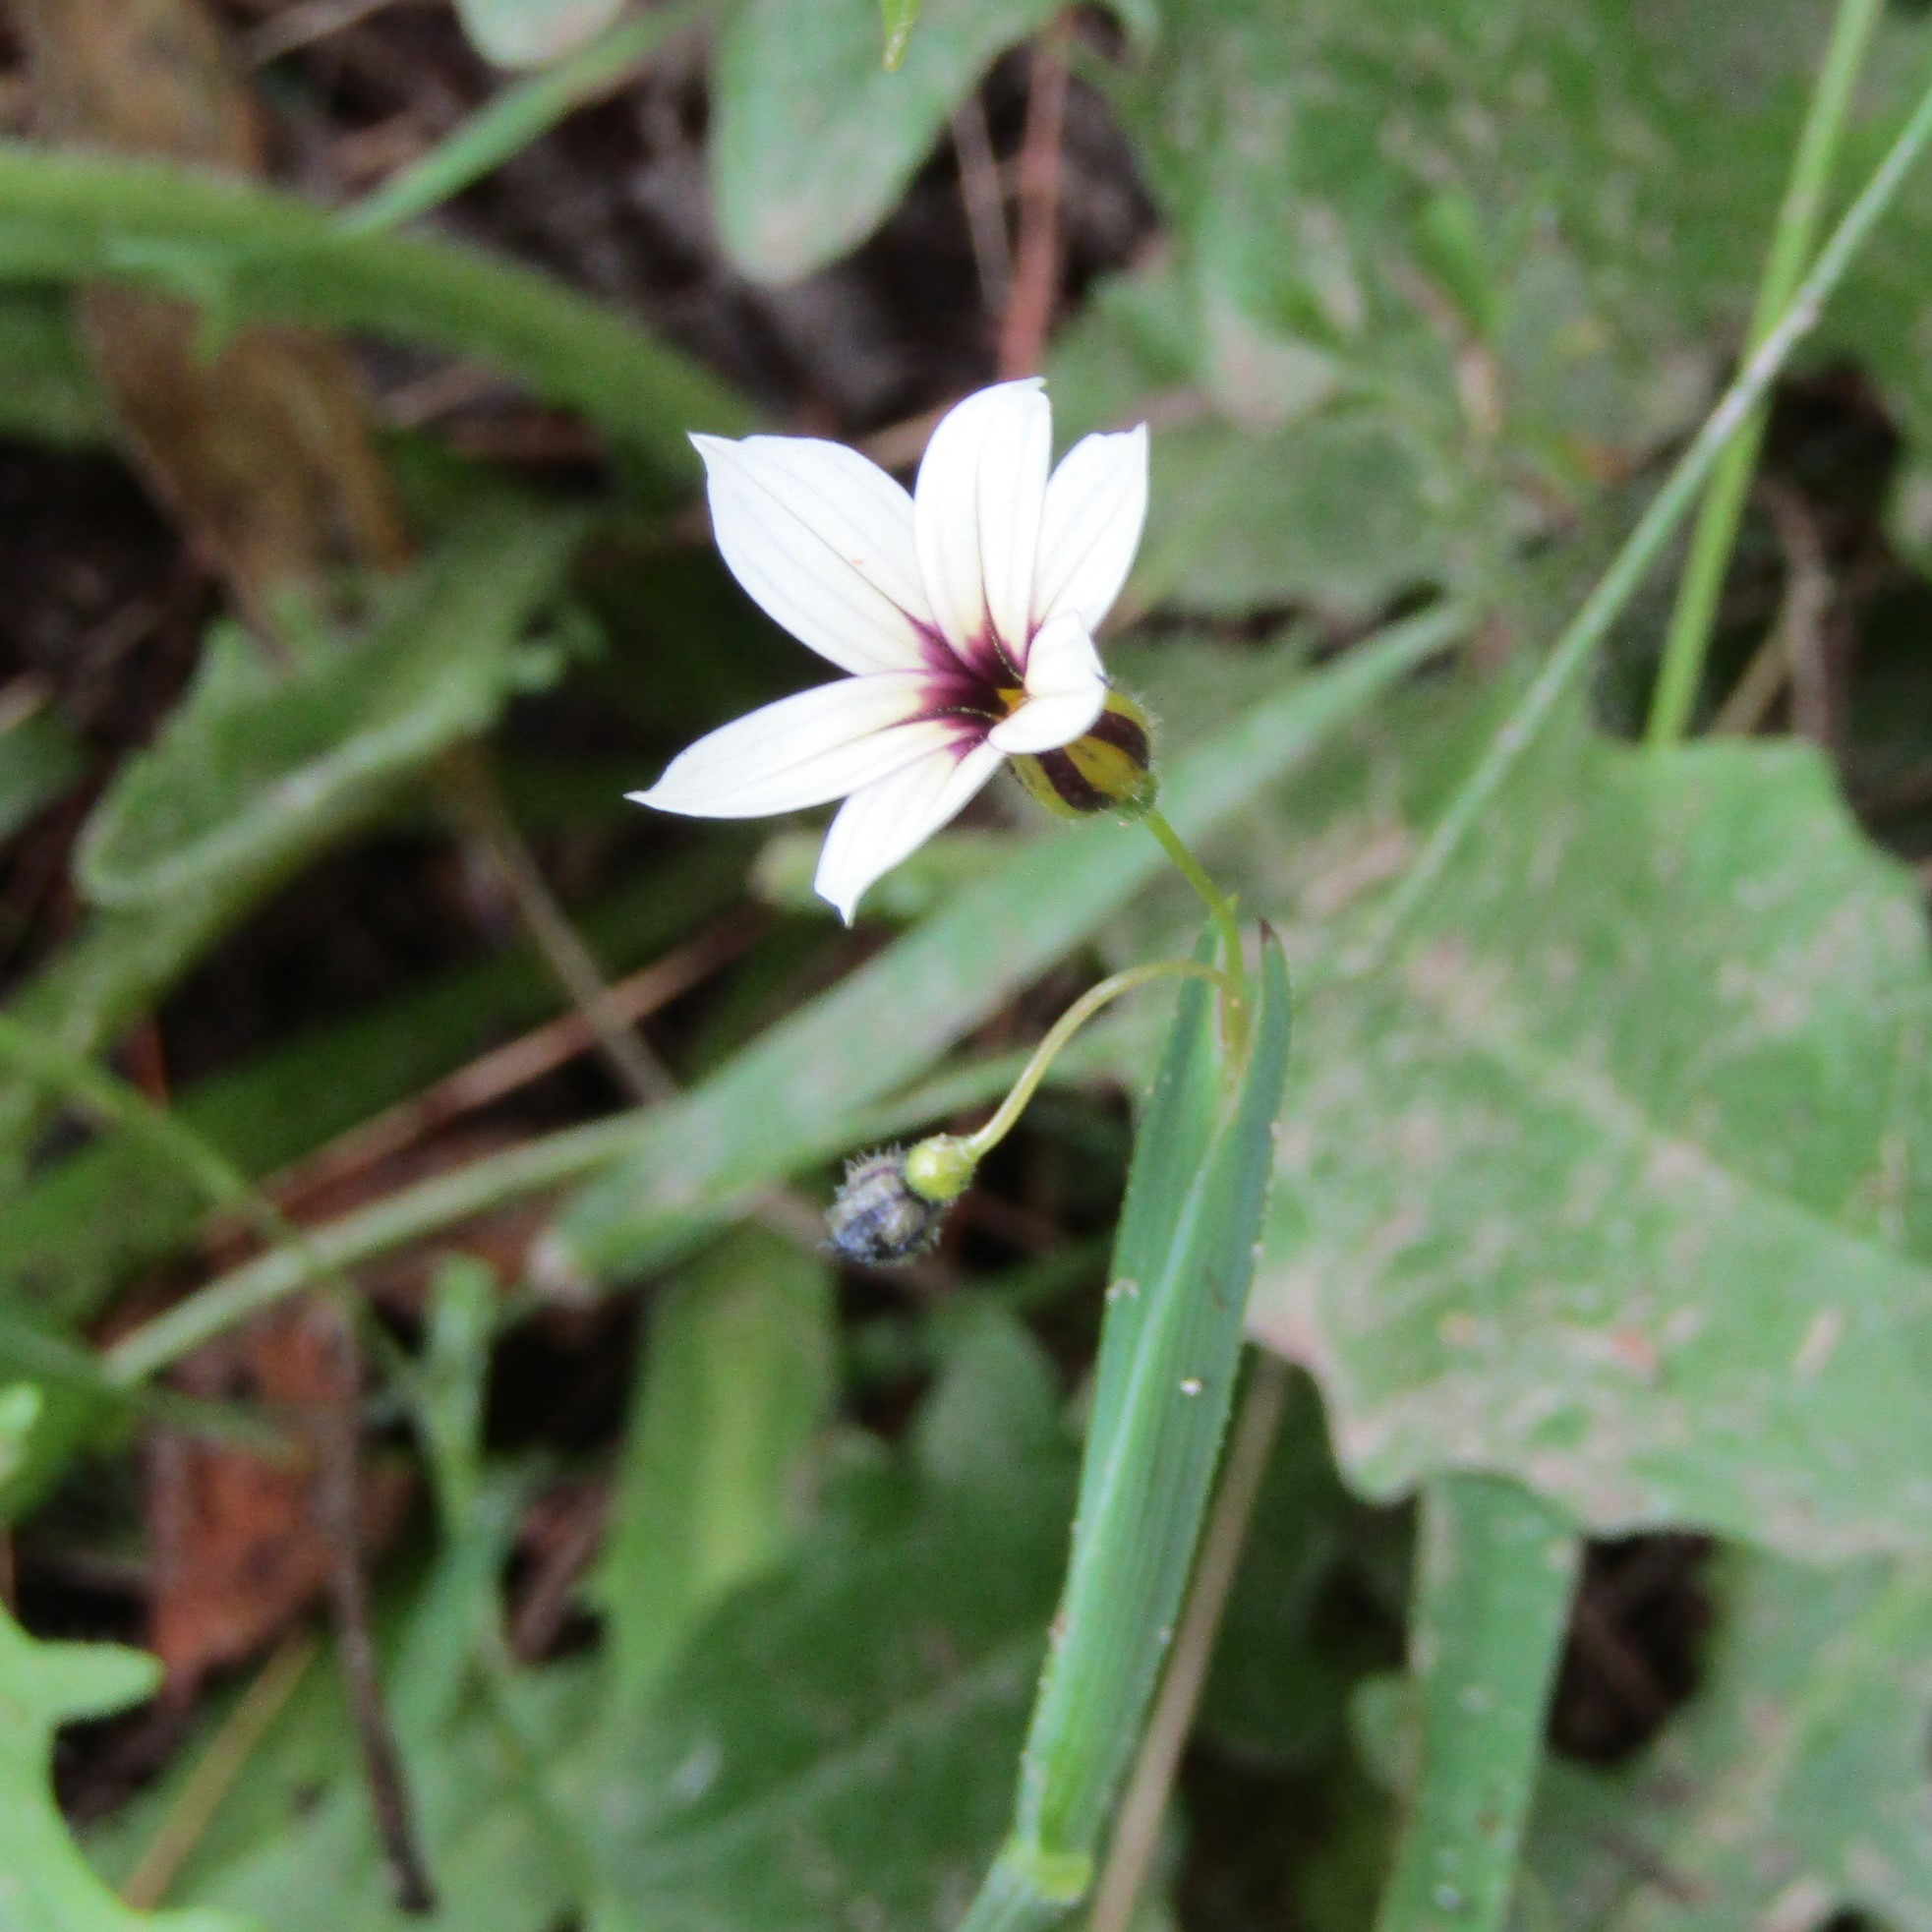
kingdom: Plantae
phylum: Tracheophyta
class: Liliopsida
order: Asparagales
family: Iridaceae
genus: Sisyrinchium
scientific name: Sisyrinchium micranthum
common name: Bermuda pigroot
